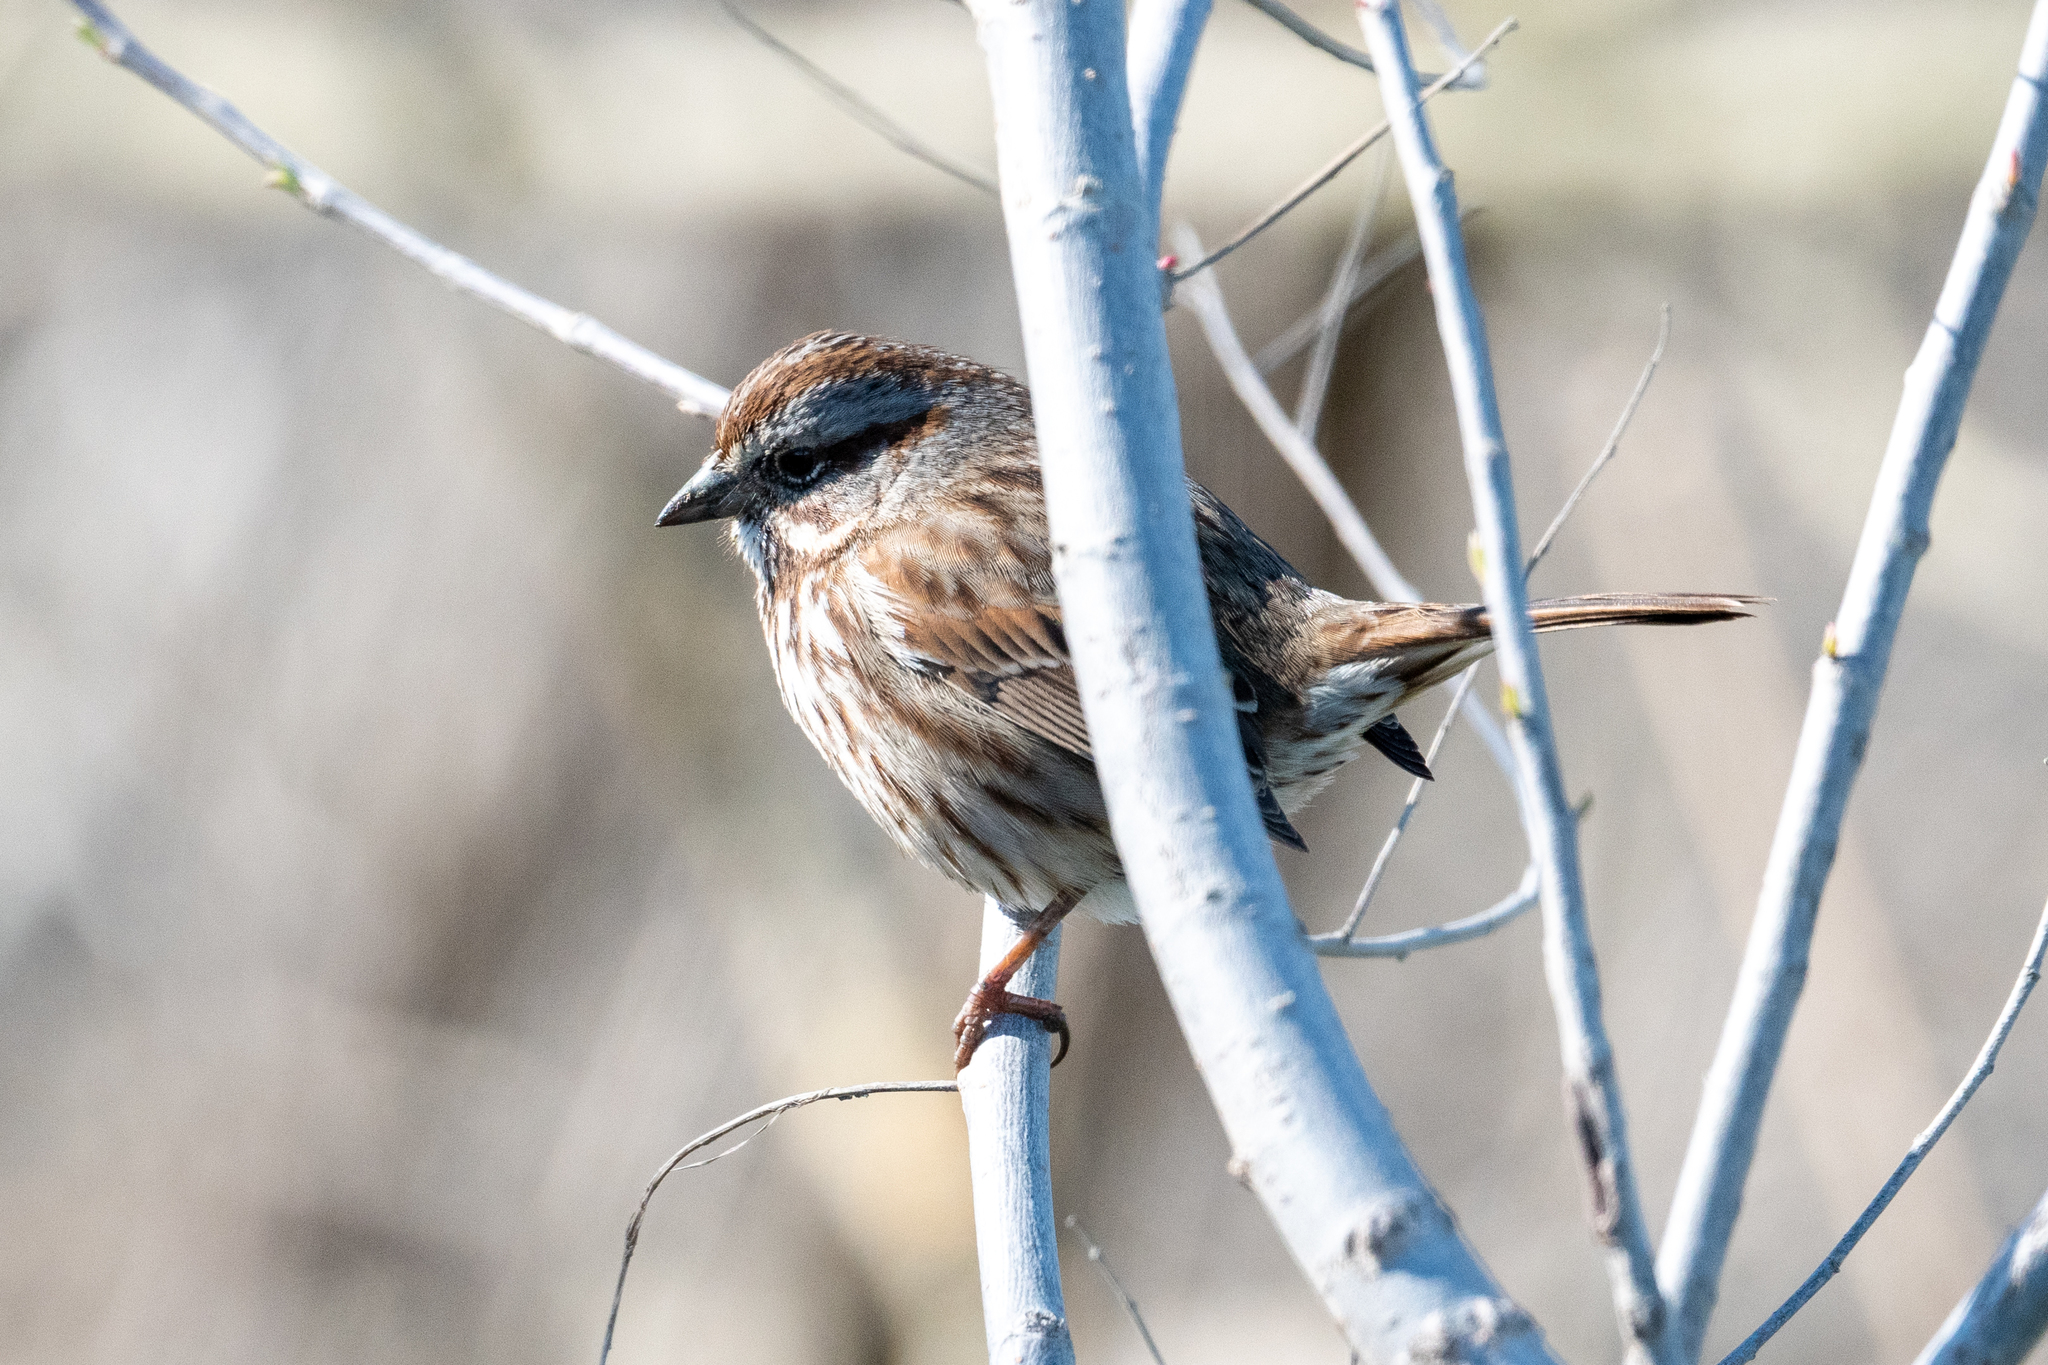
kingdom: Animalia
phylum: Chordata
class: Aves
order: Passeriformes
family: Passerellidae
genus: Melospiza
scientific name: Melospiza melodia
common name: Song sparrow
